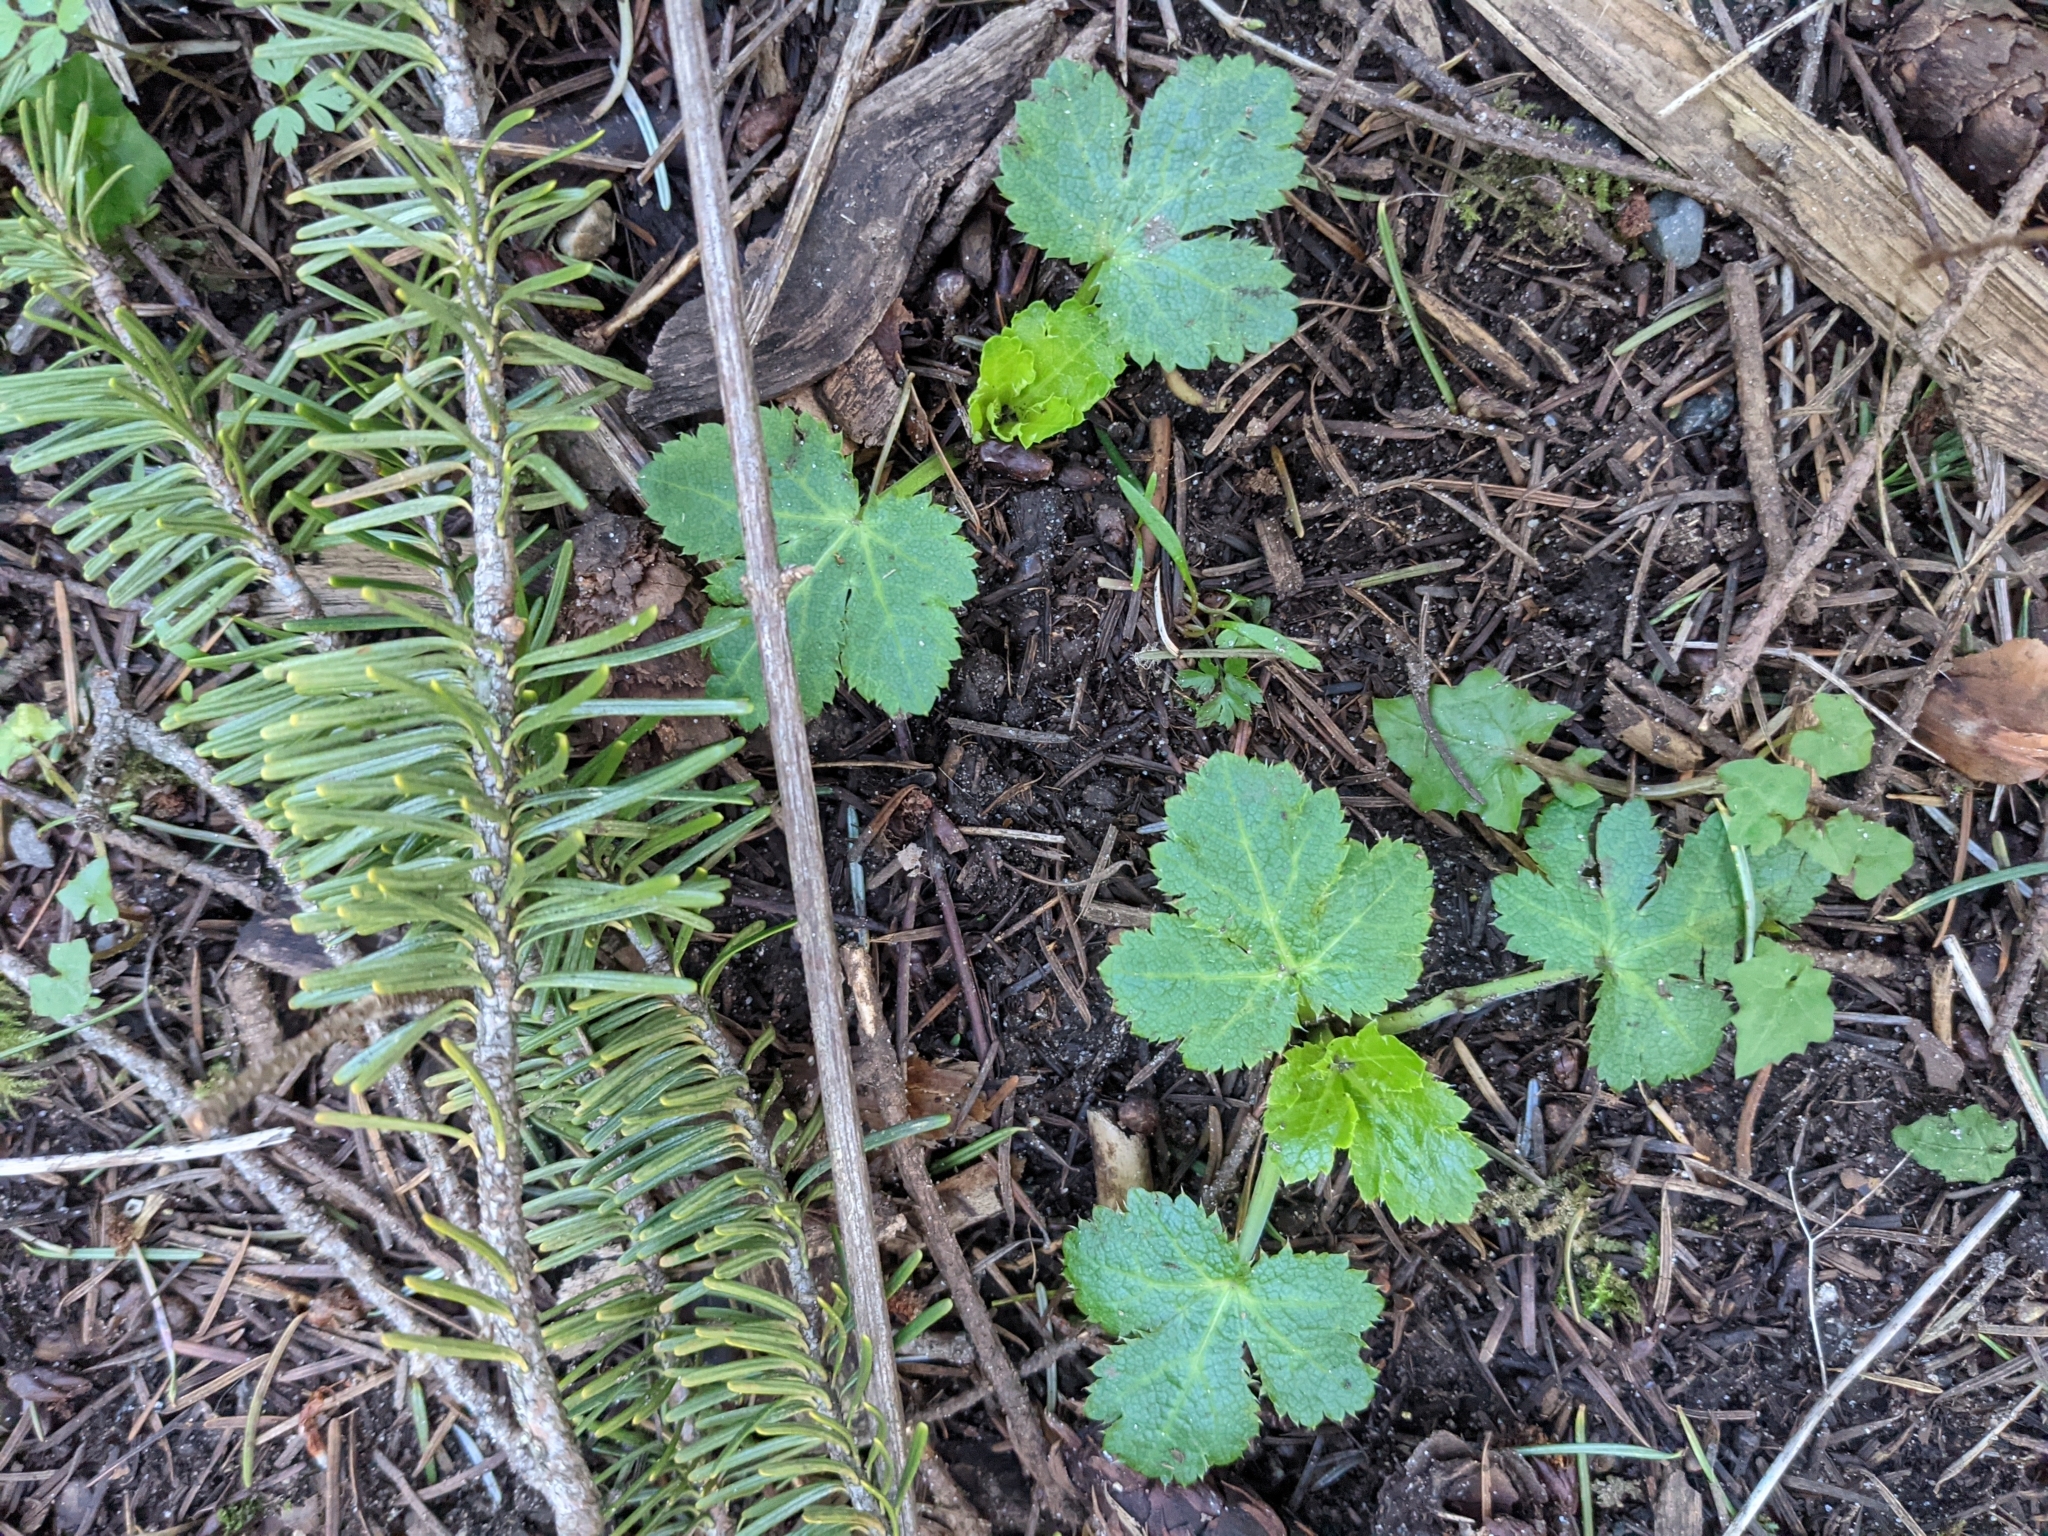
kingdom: Plantae
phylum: Tracheophyta
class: Magnoliopsida
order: Apiales
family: Apiaceae
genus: Sanicula
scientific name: Sanicula crassicaulis
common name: Western snakeroot
